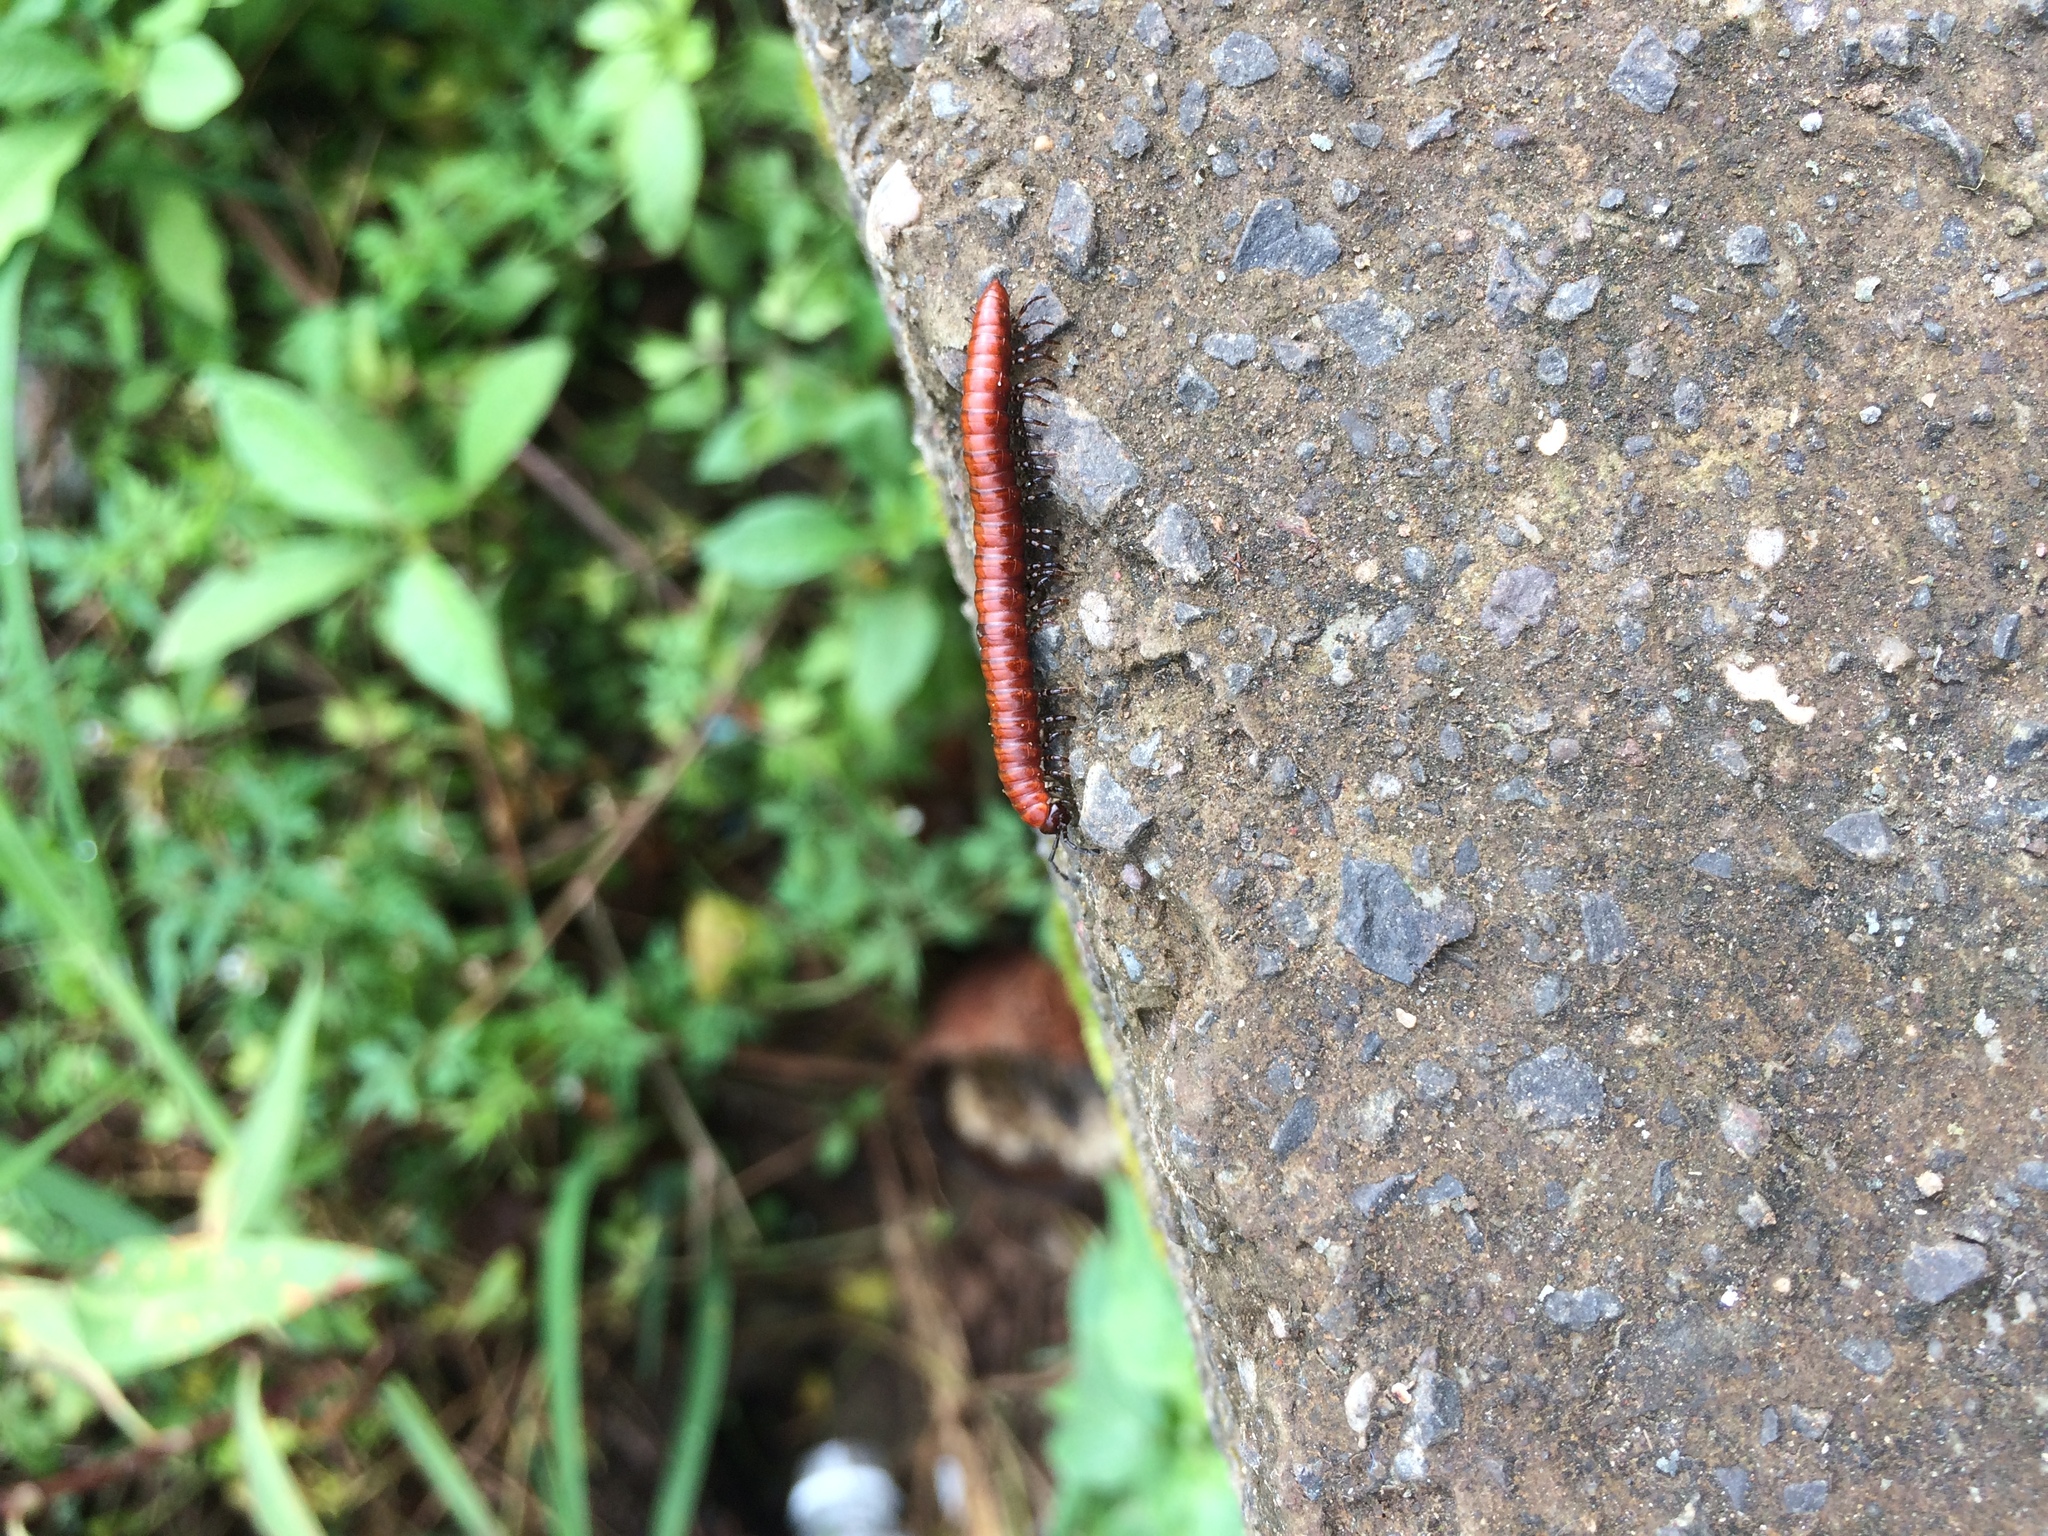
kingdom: Animalia
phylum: Arthropoda
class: Diplopoda
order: Spirobolida
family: Pachybolidae
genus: Trigoniulus
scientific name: Trigoniulus corallinus
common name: Millipede
